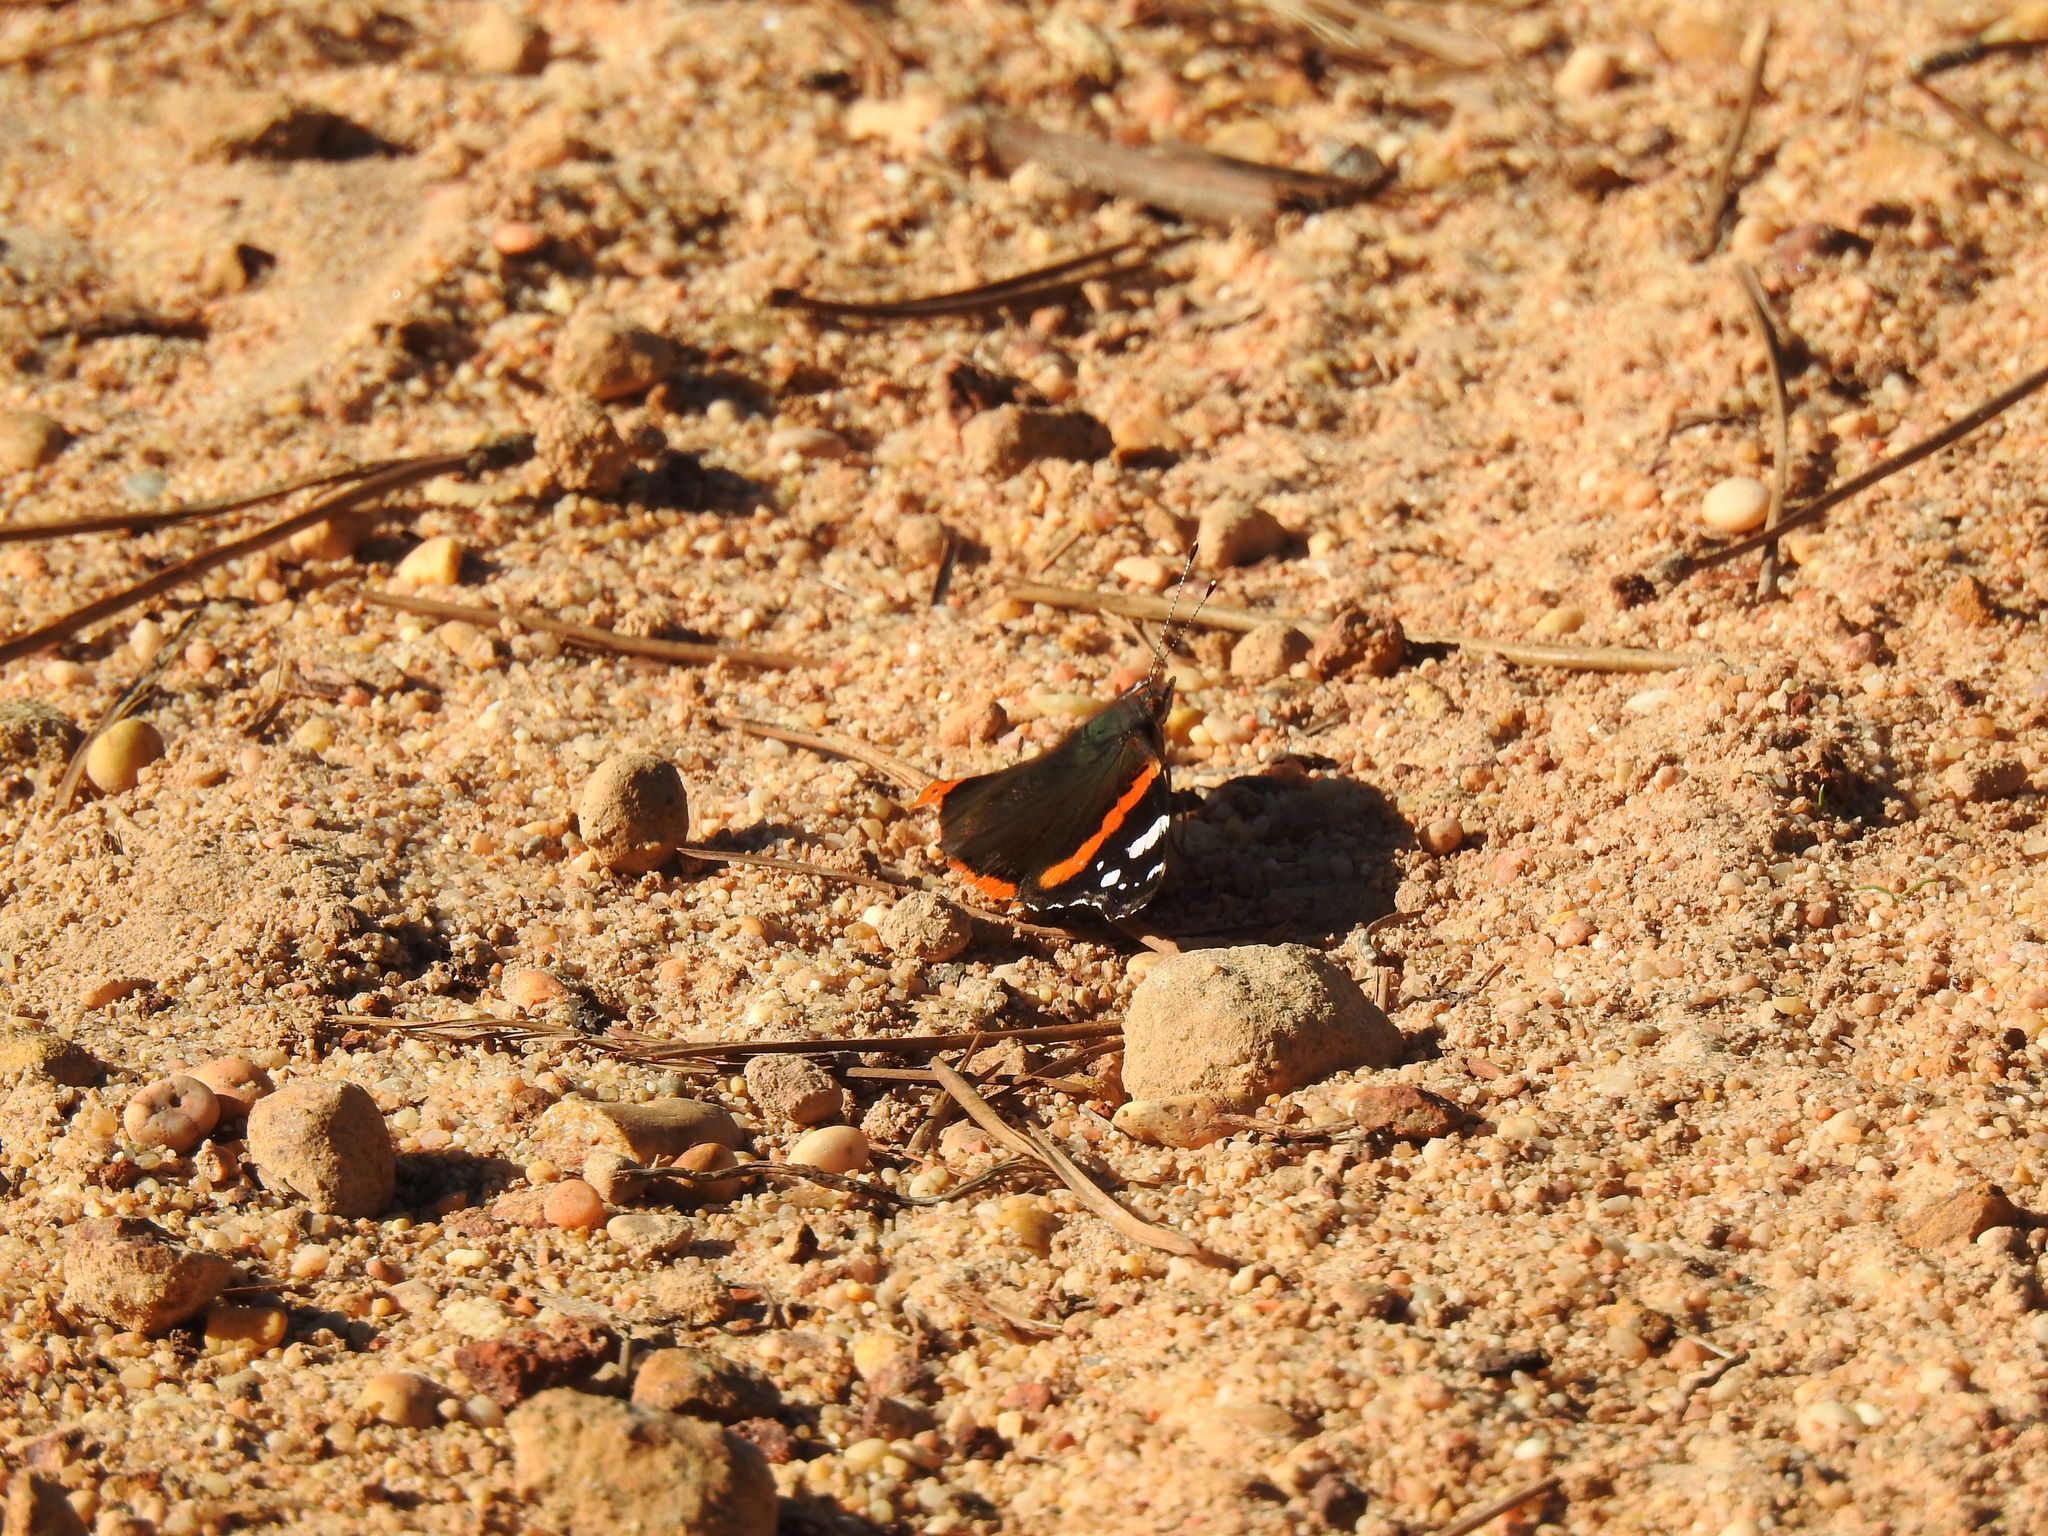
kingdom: Animalia
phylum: Arthropoda
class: Insecta
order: Lepidoptera
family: Nymphalidae
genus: Vanessa
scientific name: Vanessa atalanta
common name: Red admiral
